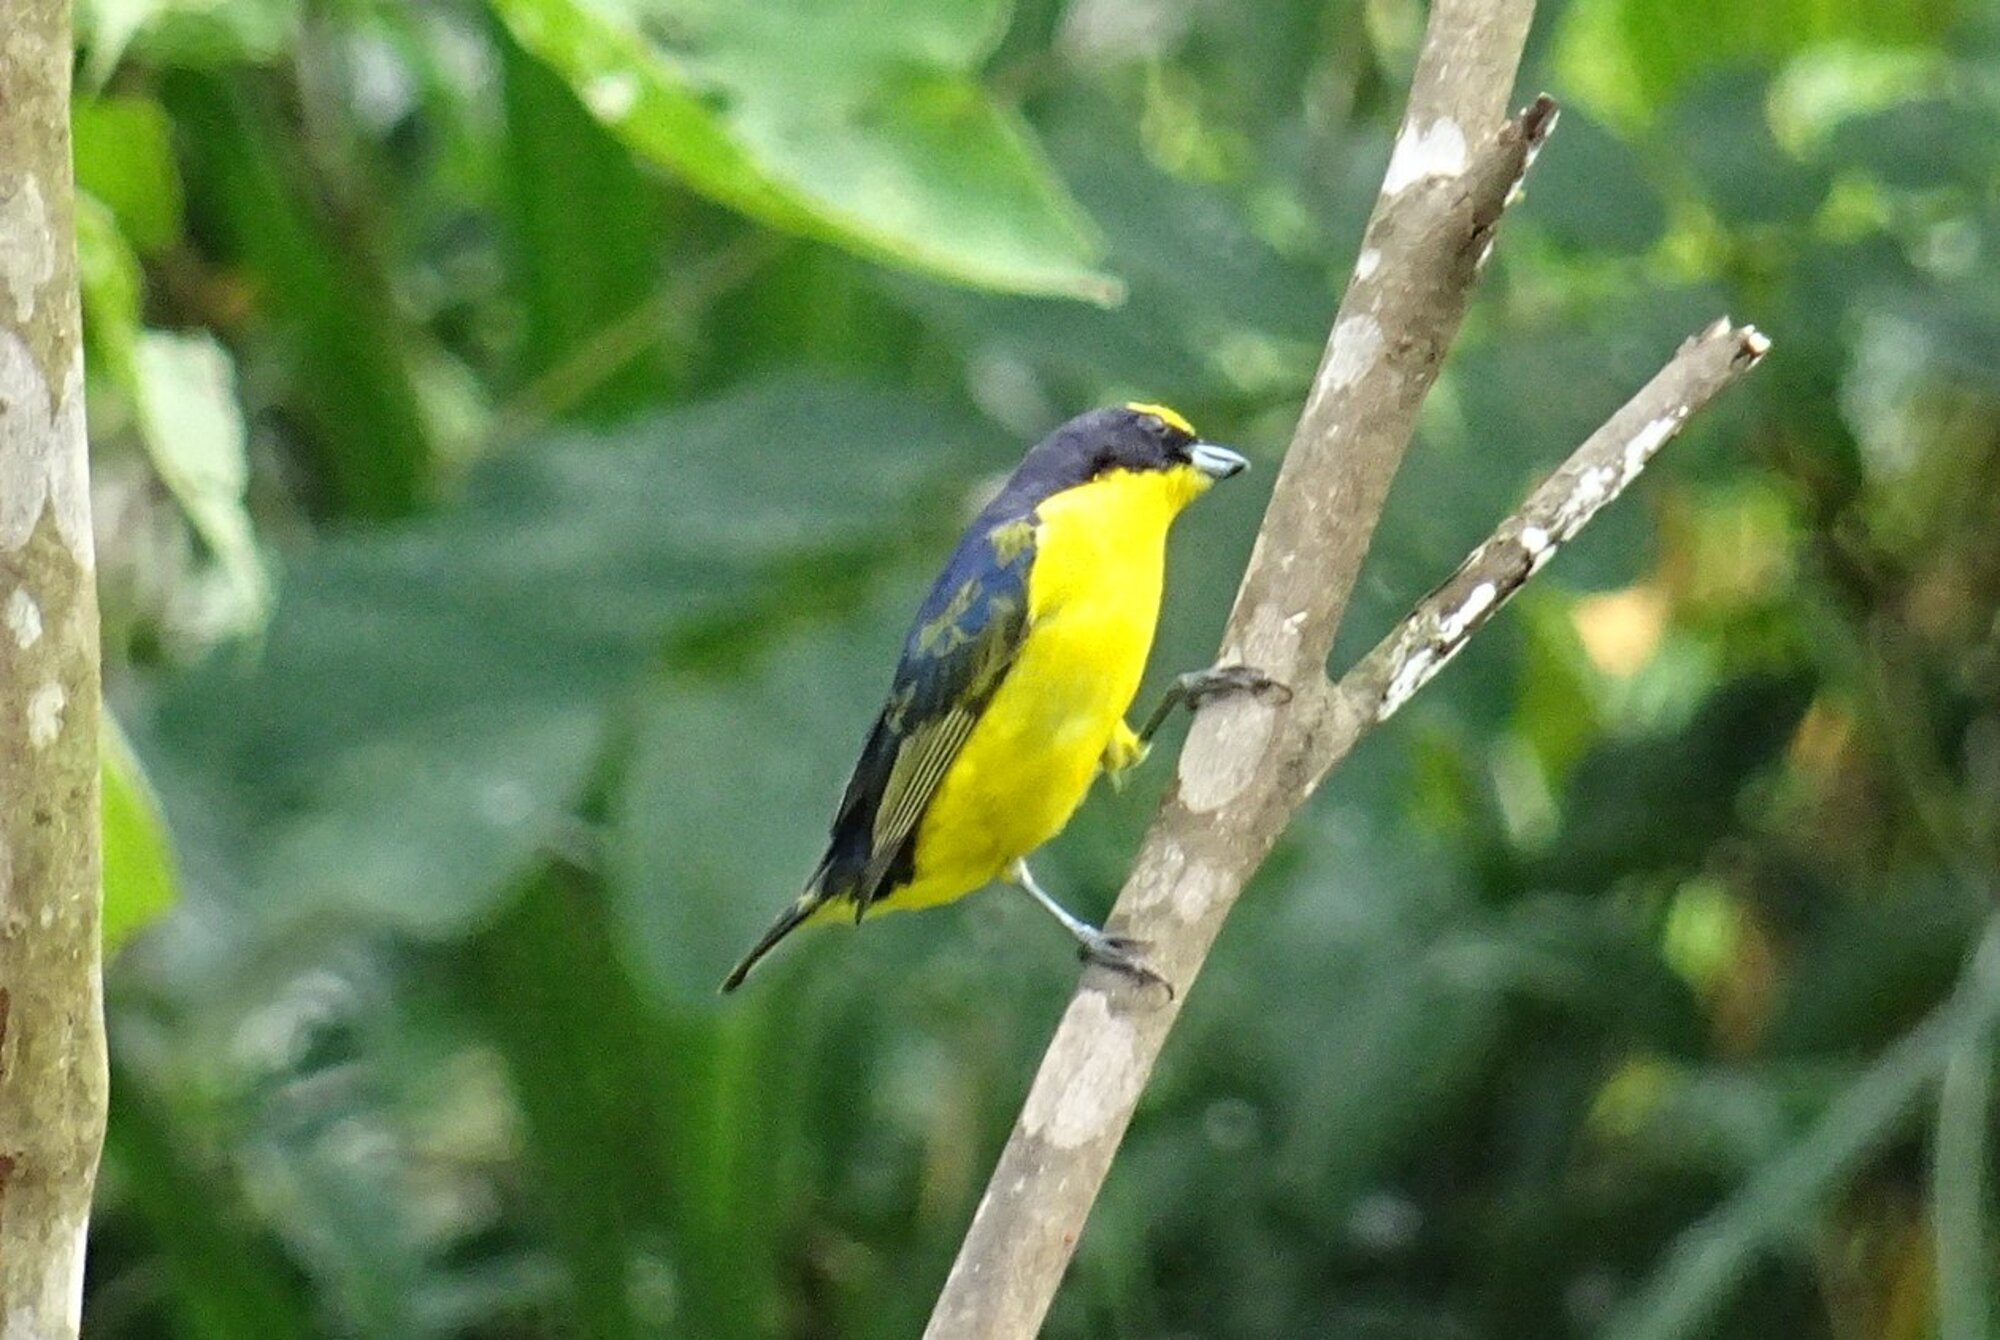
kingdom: Animalia
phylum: Chordata
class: Aves
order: Passeriformes
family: Fringillidae
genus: Euphonia
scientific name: Euphonia laniirostris
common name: Thick-billed euphonia
